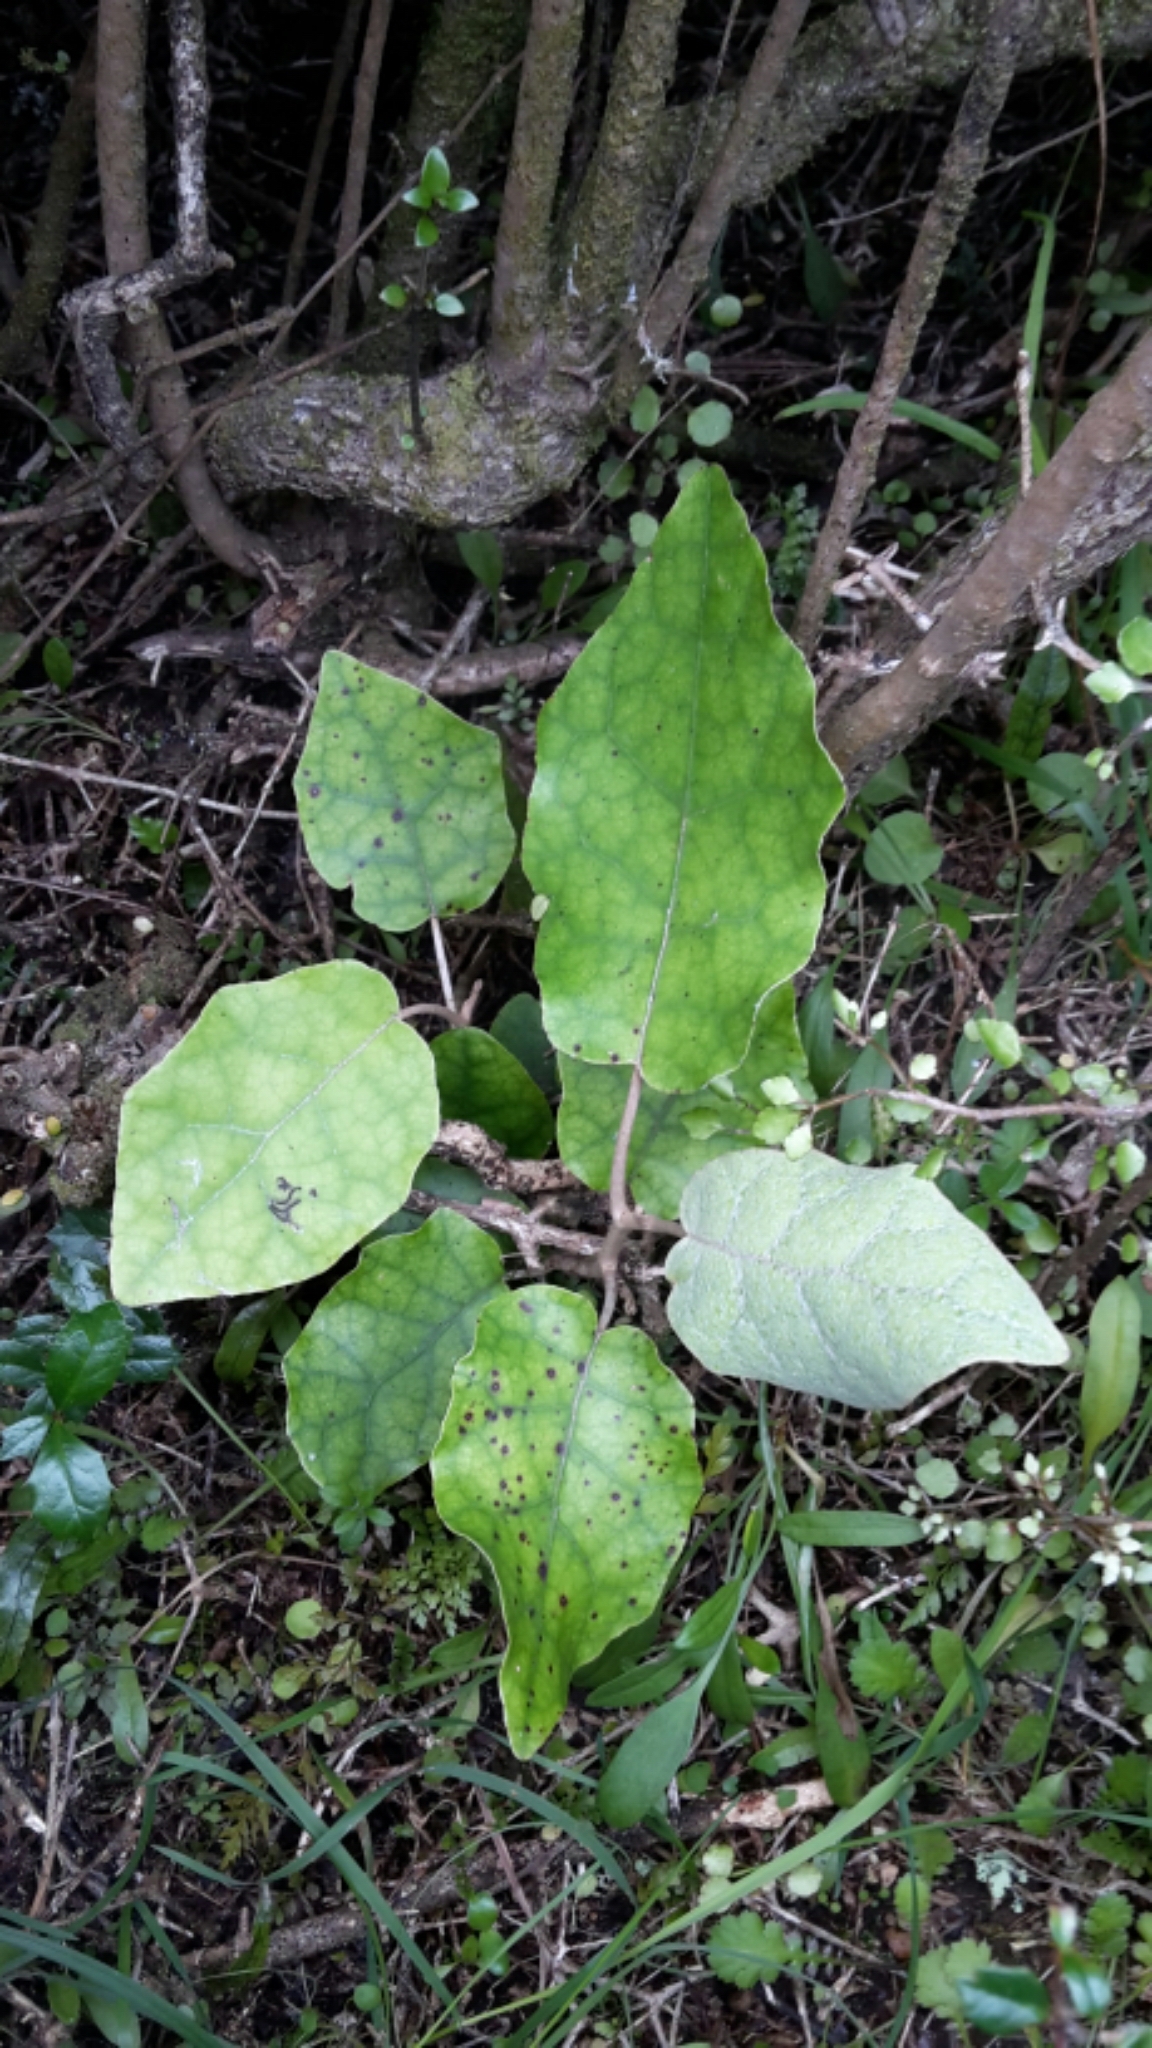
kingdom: Plantae
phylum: Tracheophyta
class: Magnoliopsida
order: Asterales
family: Asteraceae
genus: Brachyglottis
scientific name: Brachyglottis repanda
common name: Hedge ragwort
